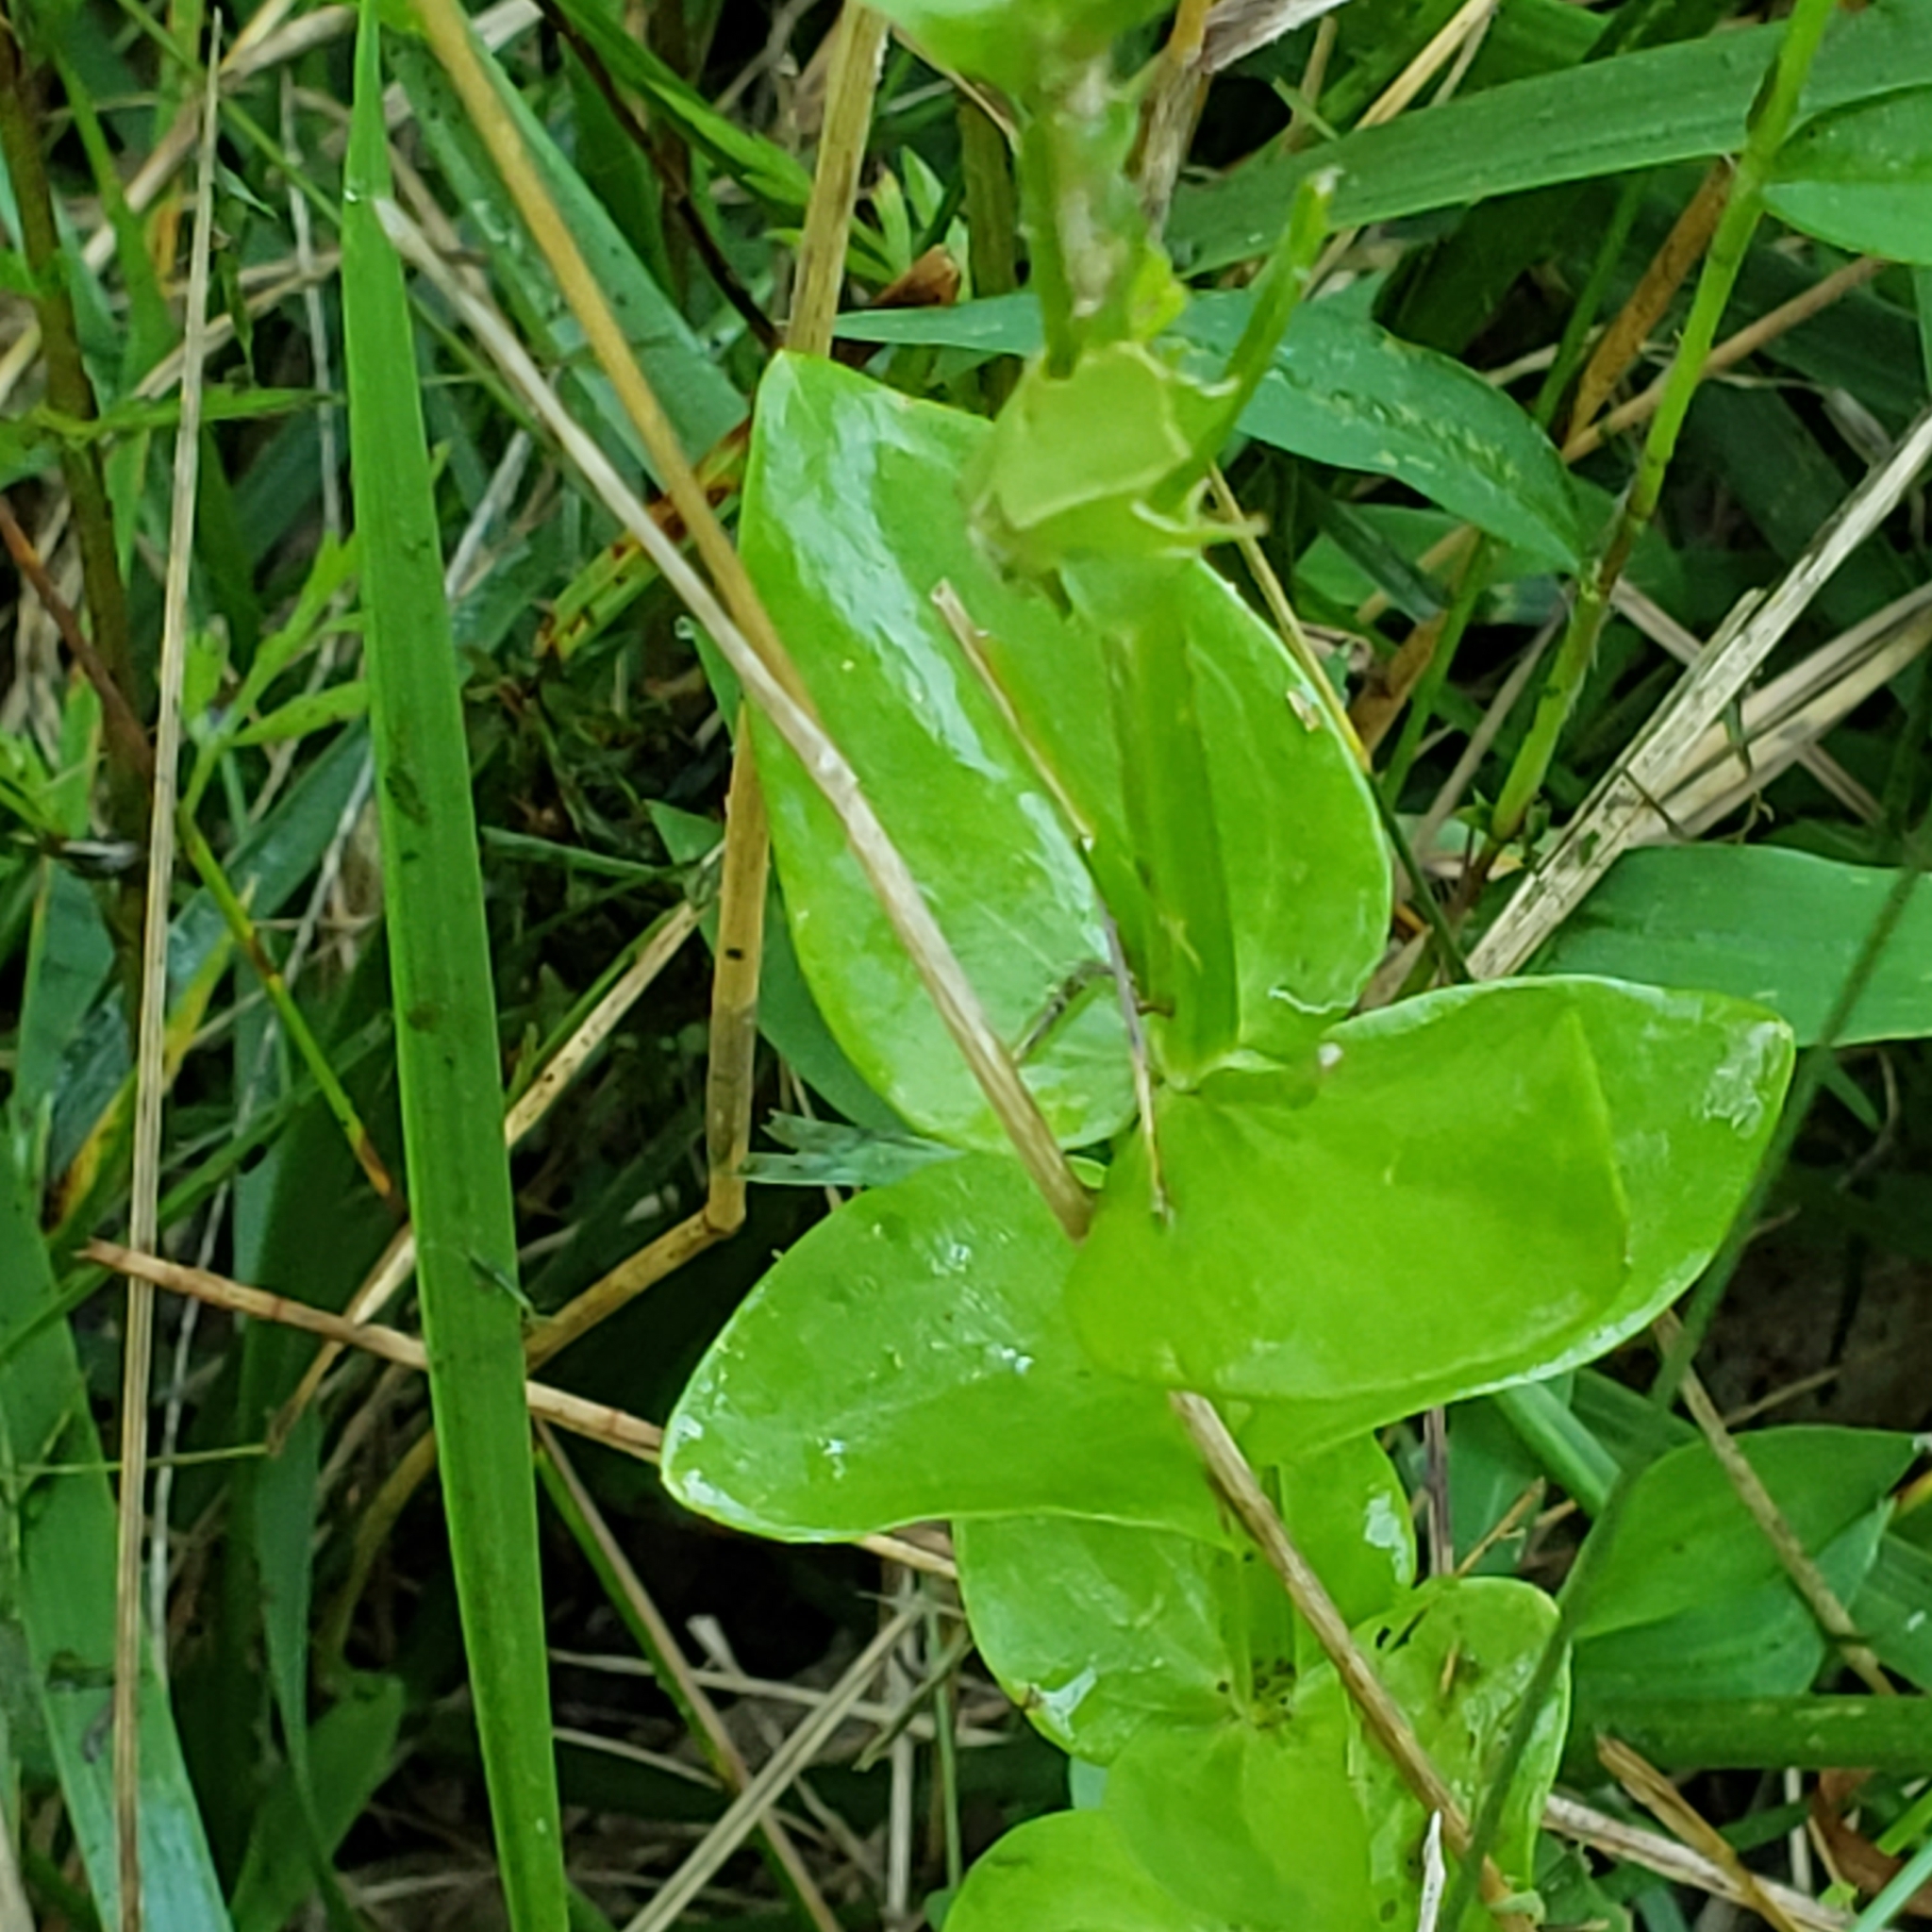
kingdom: Plantae
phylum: Tracheophyta
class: Magnoliopsida
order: Gentianales
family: Gentianaceae
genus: Sabatia
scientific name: Sabatia angularis
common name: Rose-pink
